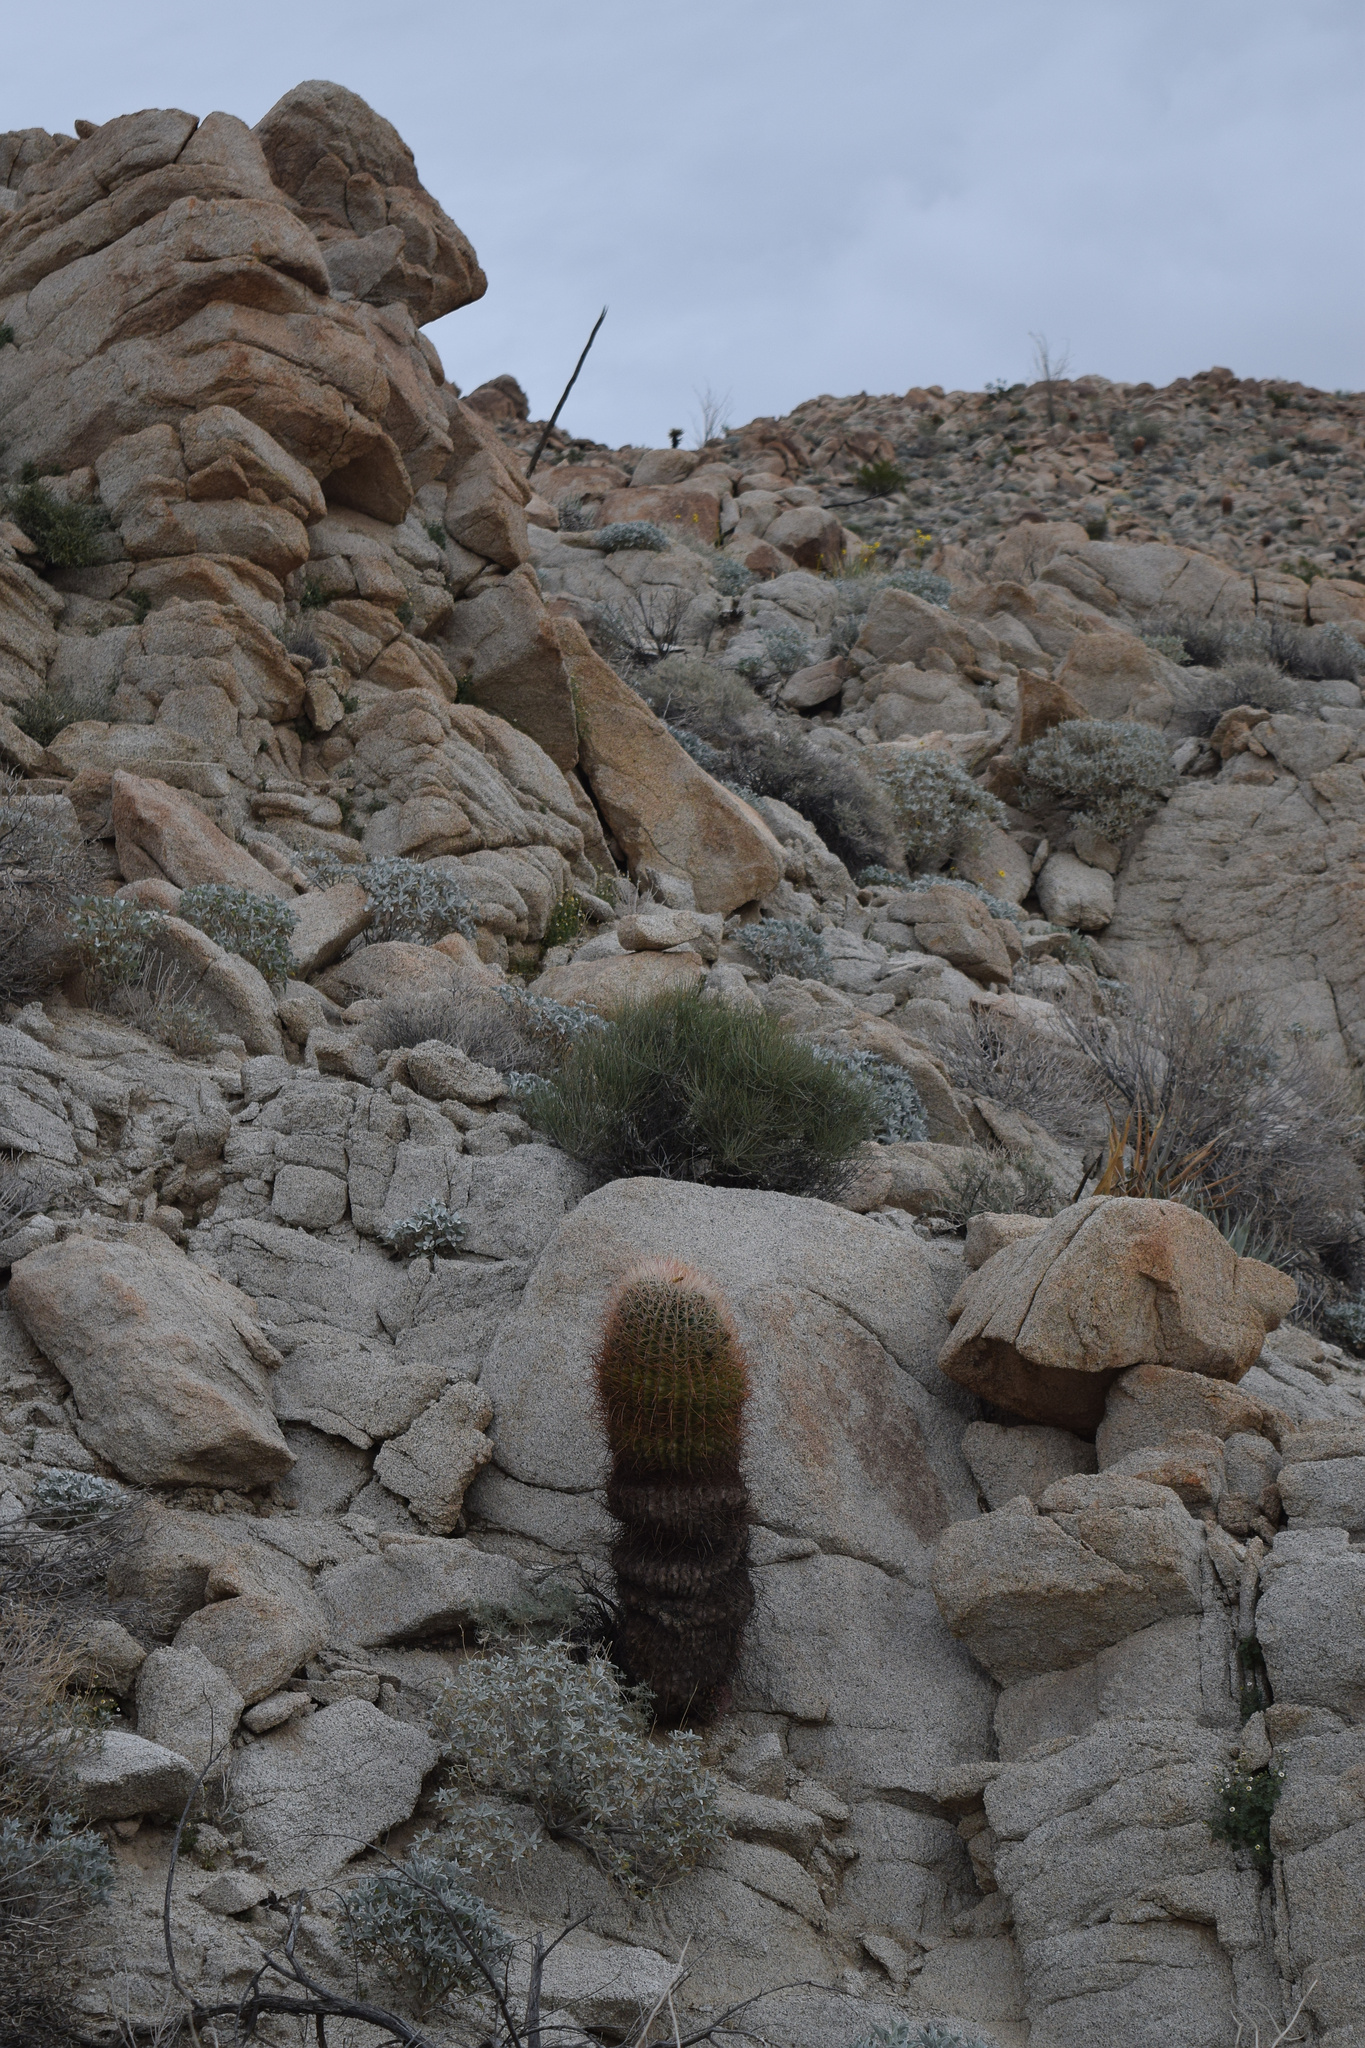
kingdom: Plantae
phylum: Tracheophyta
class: Magnoliopsida
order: Caryophyllales
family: Cactaceae
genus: Ferocactus
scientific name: Ferocactus cylindraceus
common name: California barrel cactus
